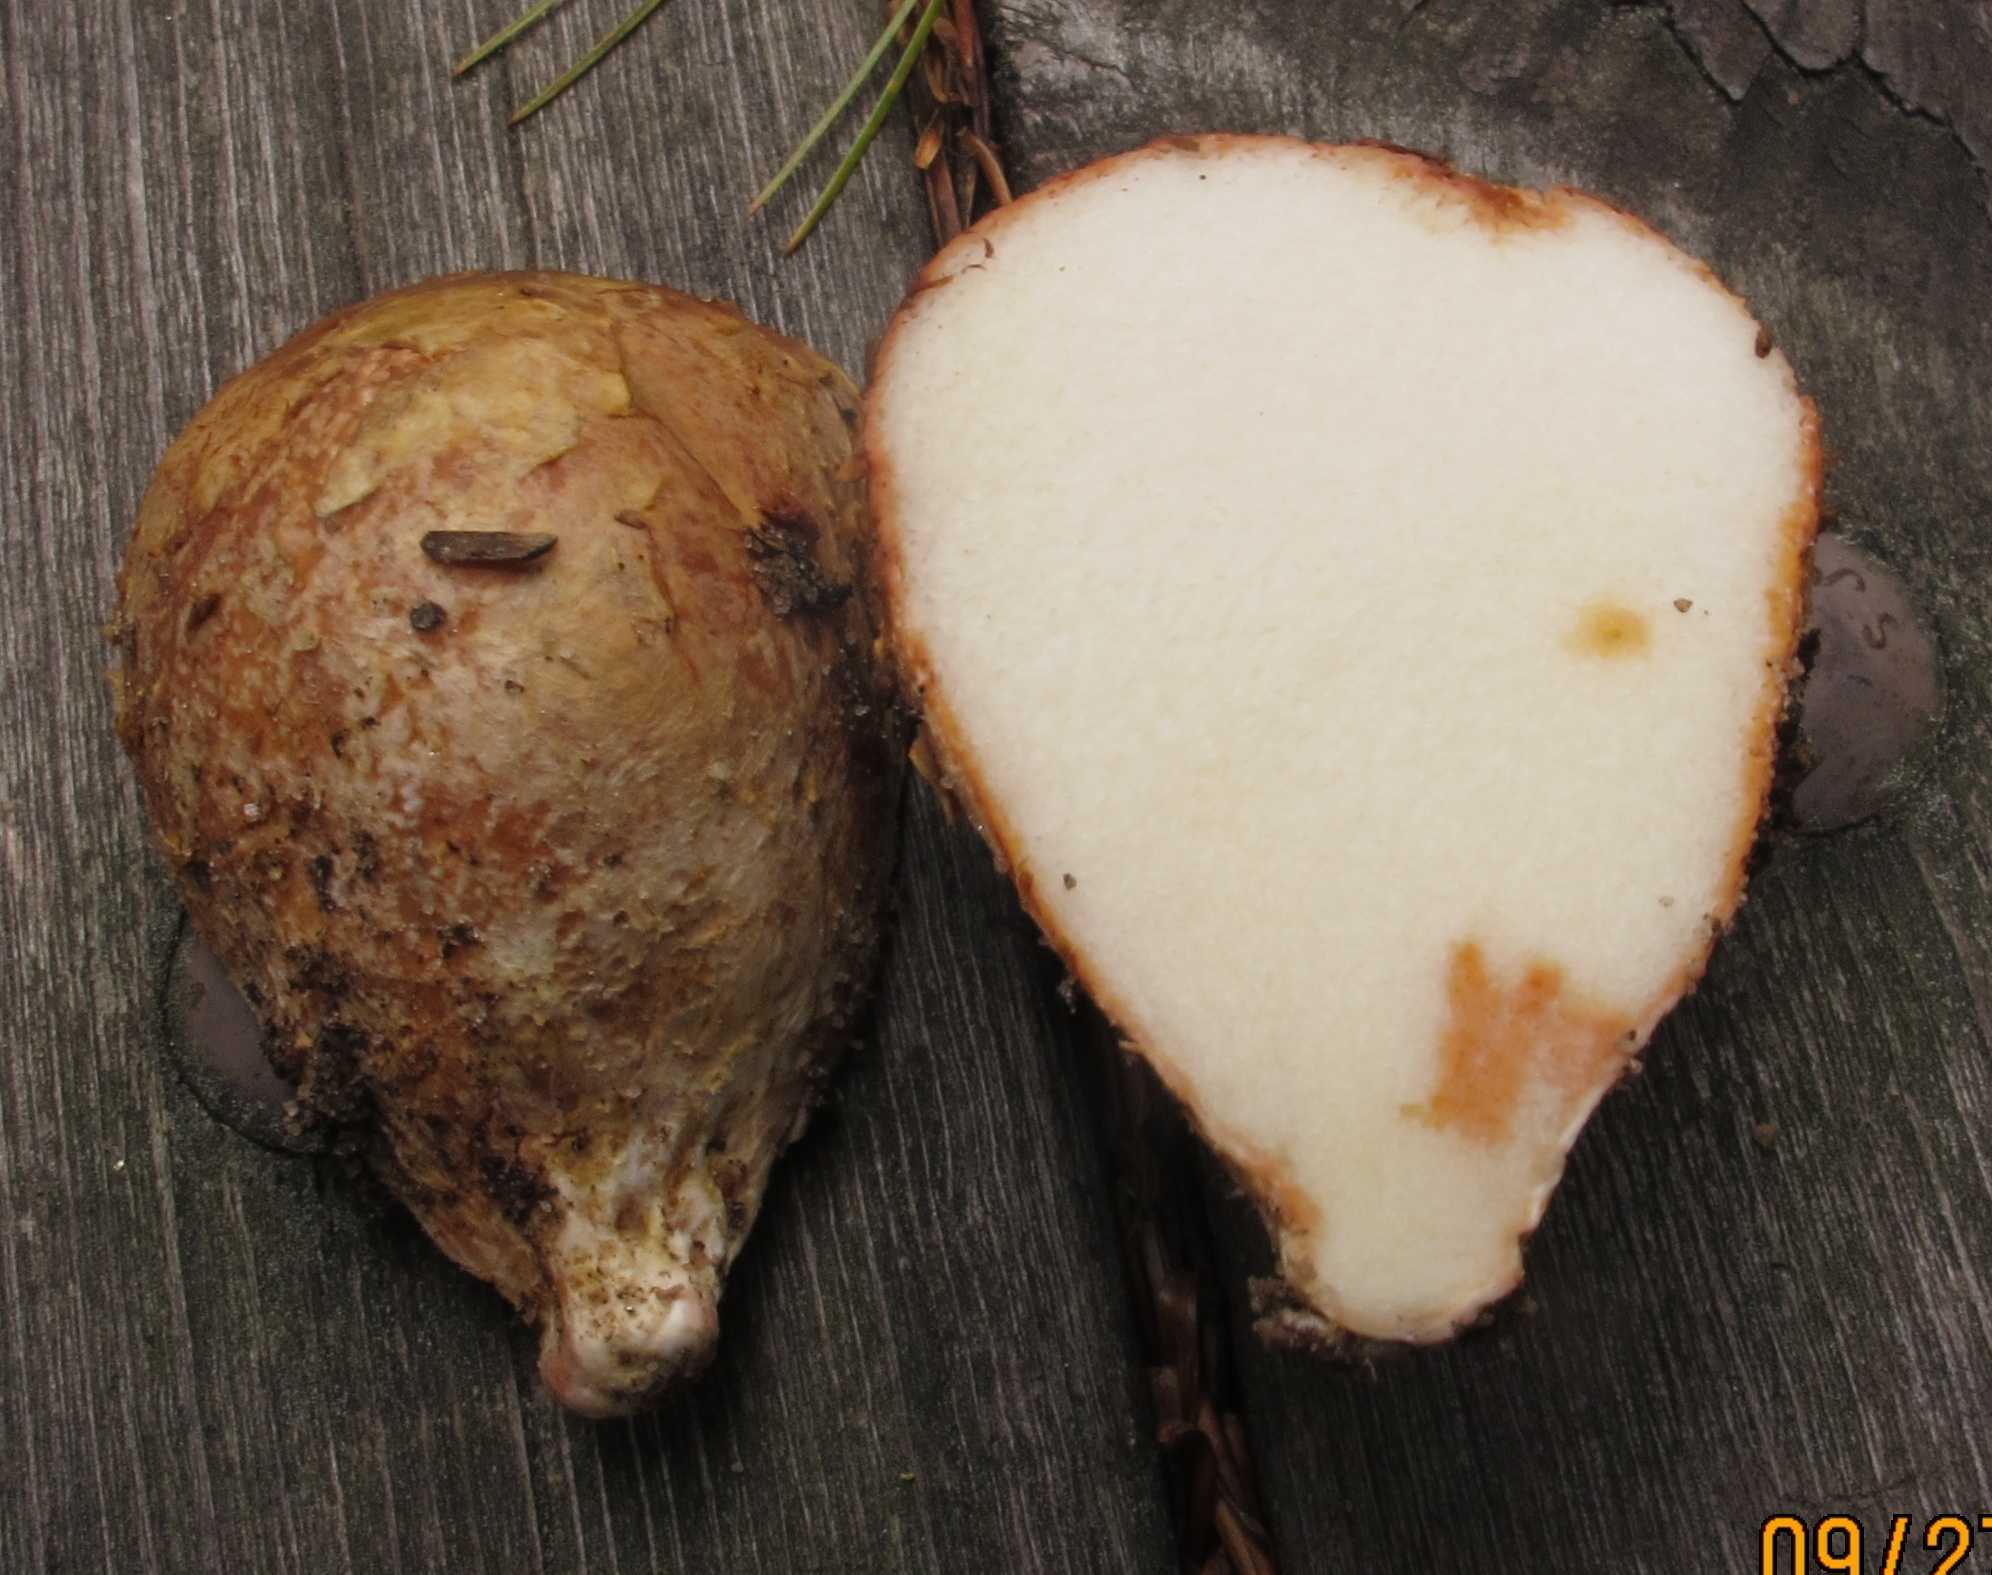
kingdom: Fungi
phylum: Basidiomycota
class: Agaricomycetes
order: Boletales
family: Rhizopogonaceae
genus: Rhizopogon
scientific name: Rhizopogon roseolus
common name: Blushing beard truffle
